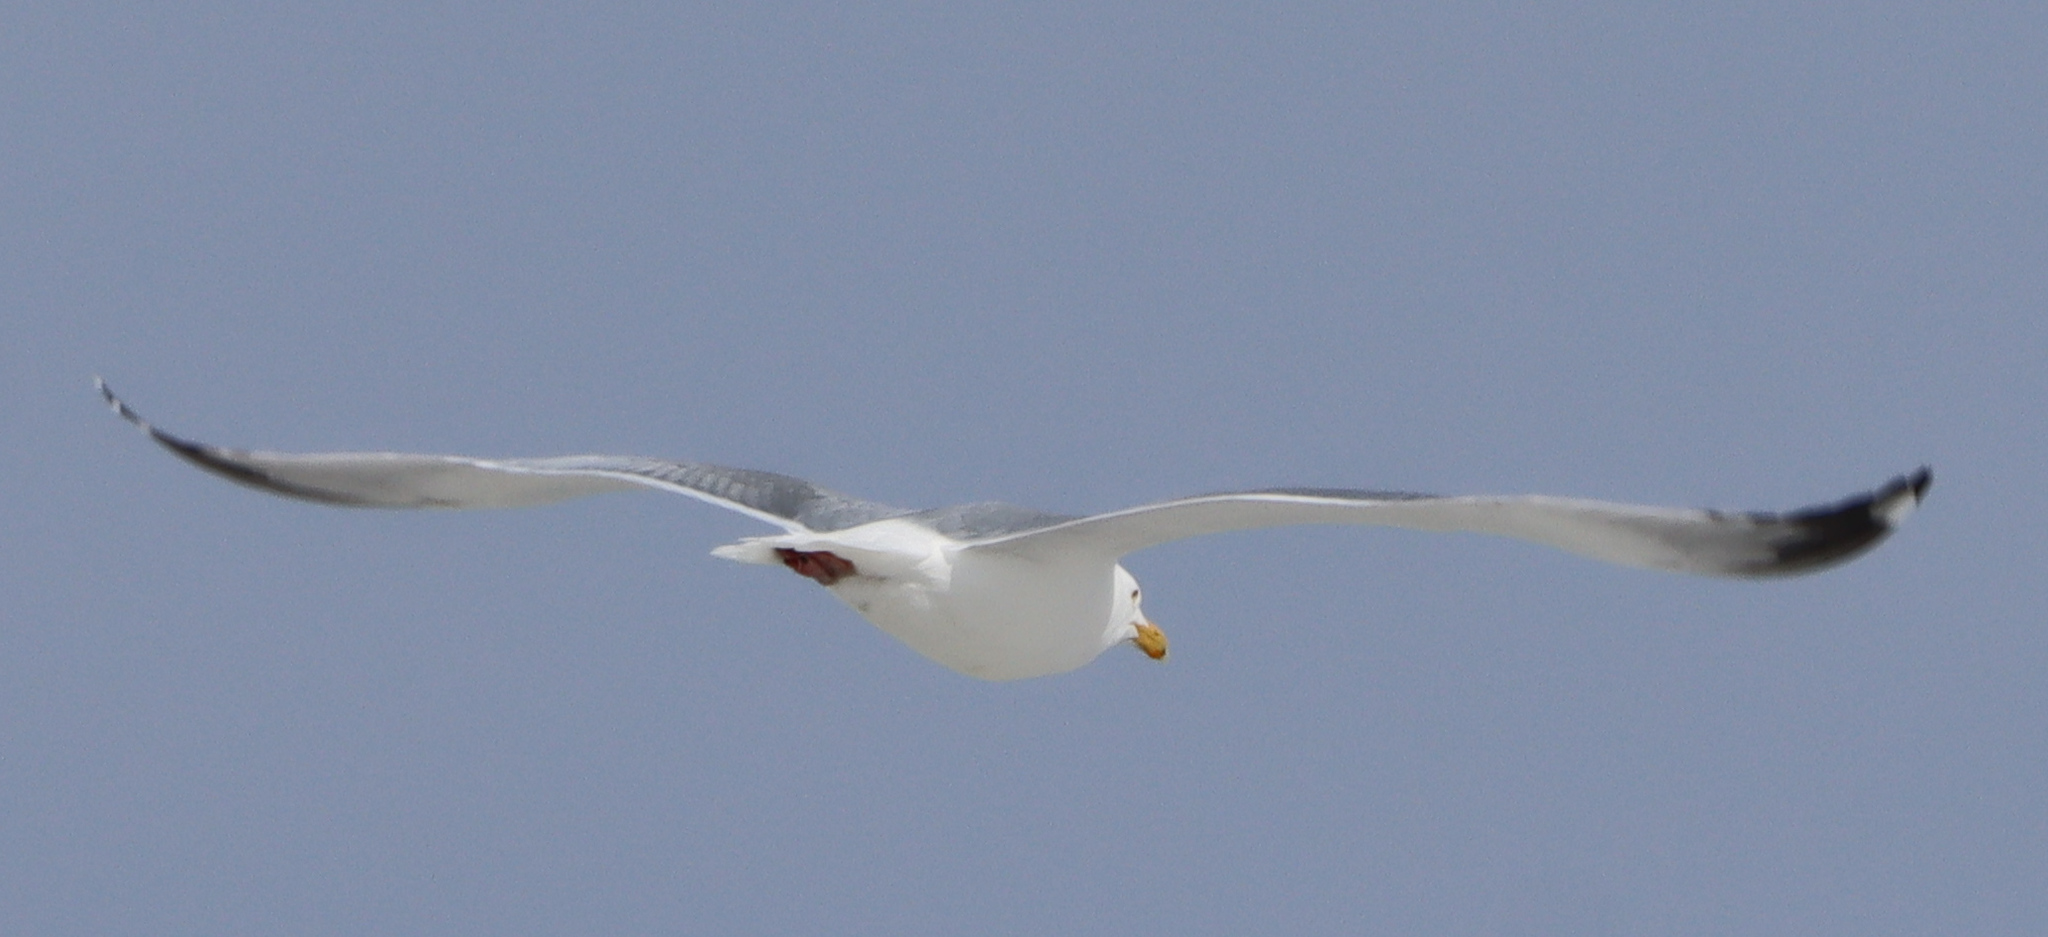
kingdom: Animalia
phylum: Chordata
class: Aves
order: Charadriiformes
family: Laridae
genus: Larus
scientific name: Larus argentatus
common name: Herring gull
